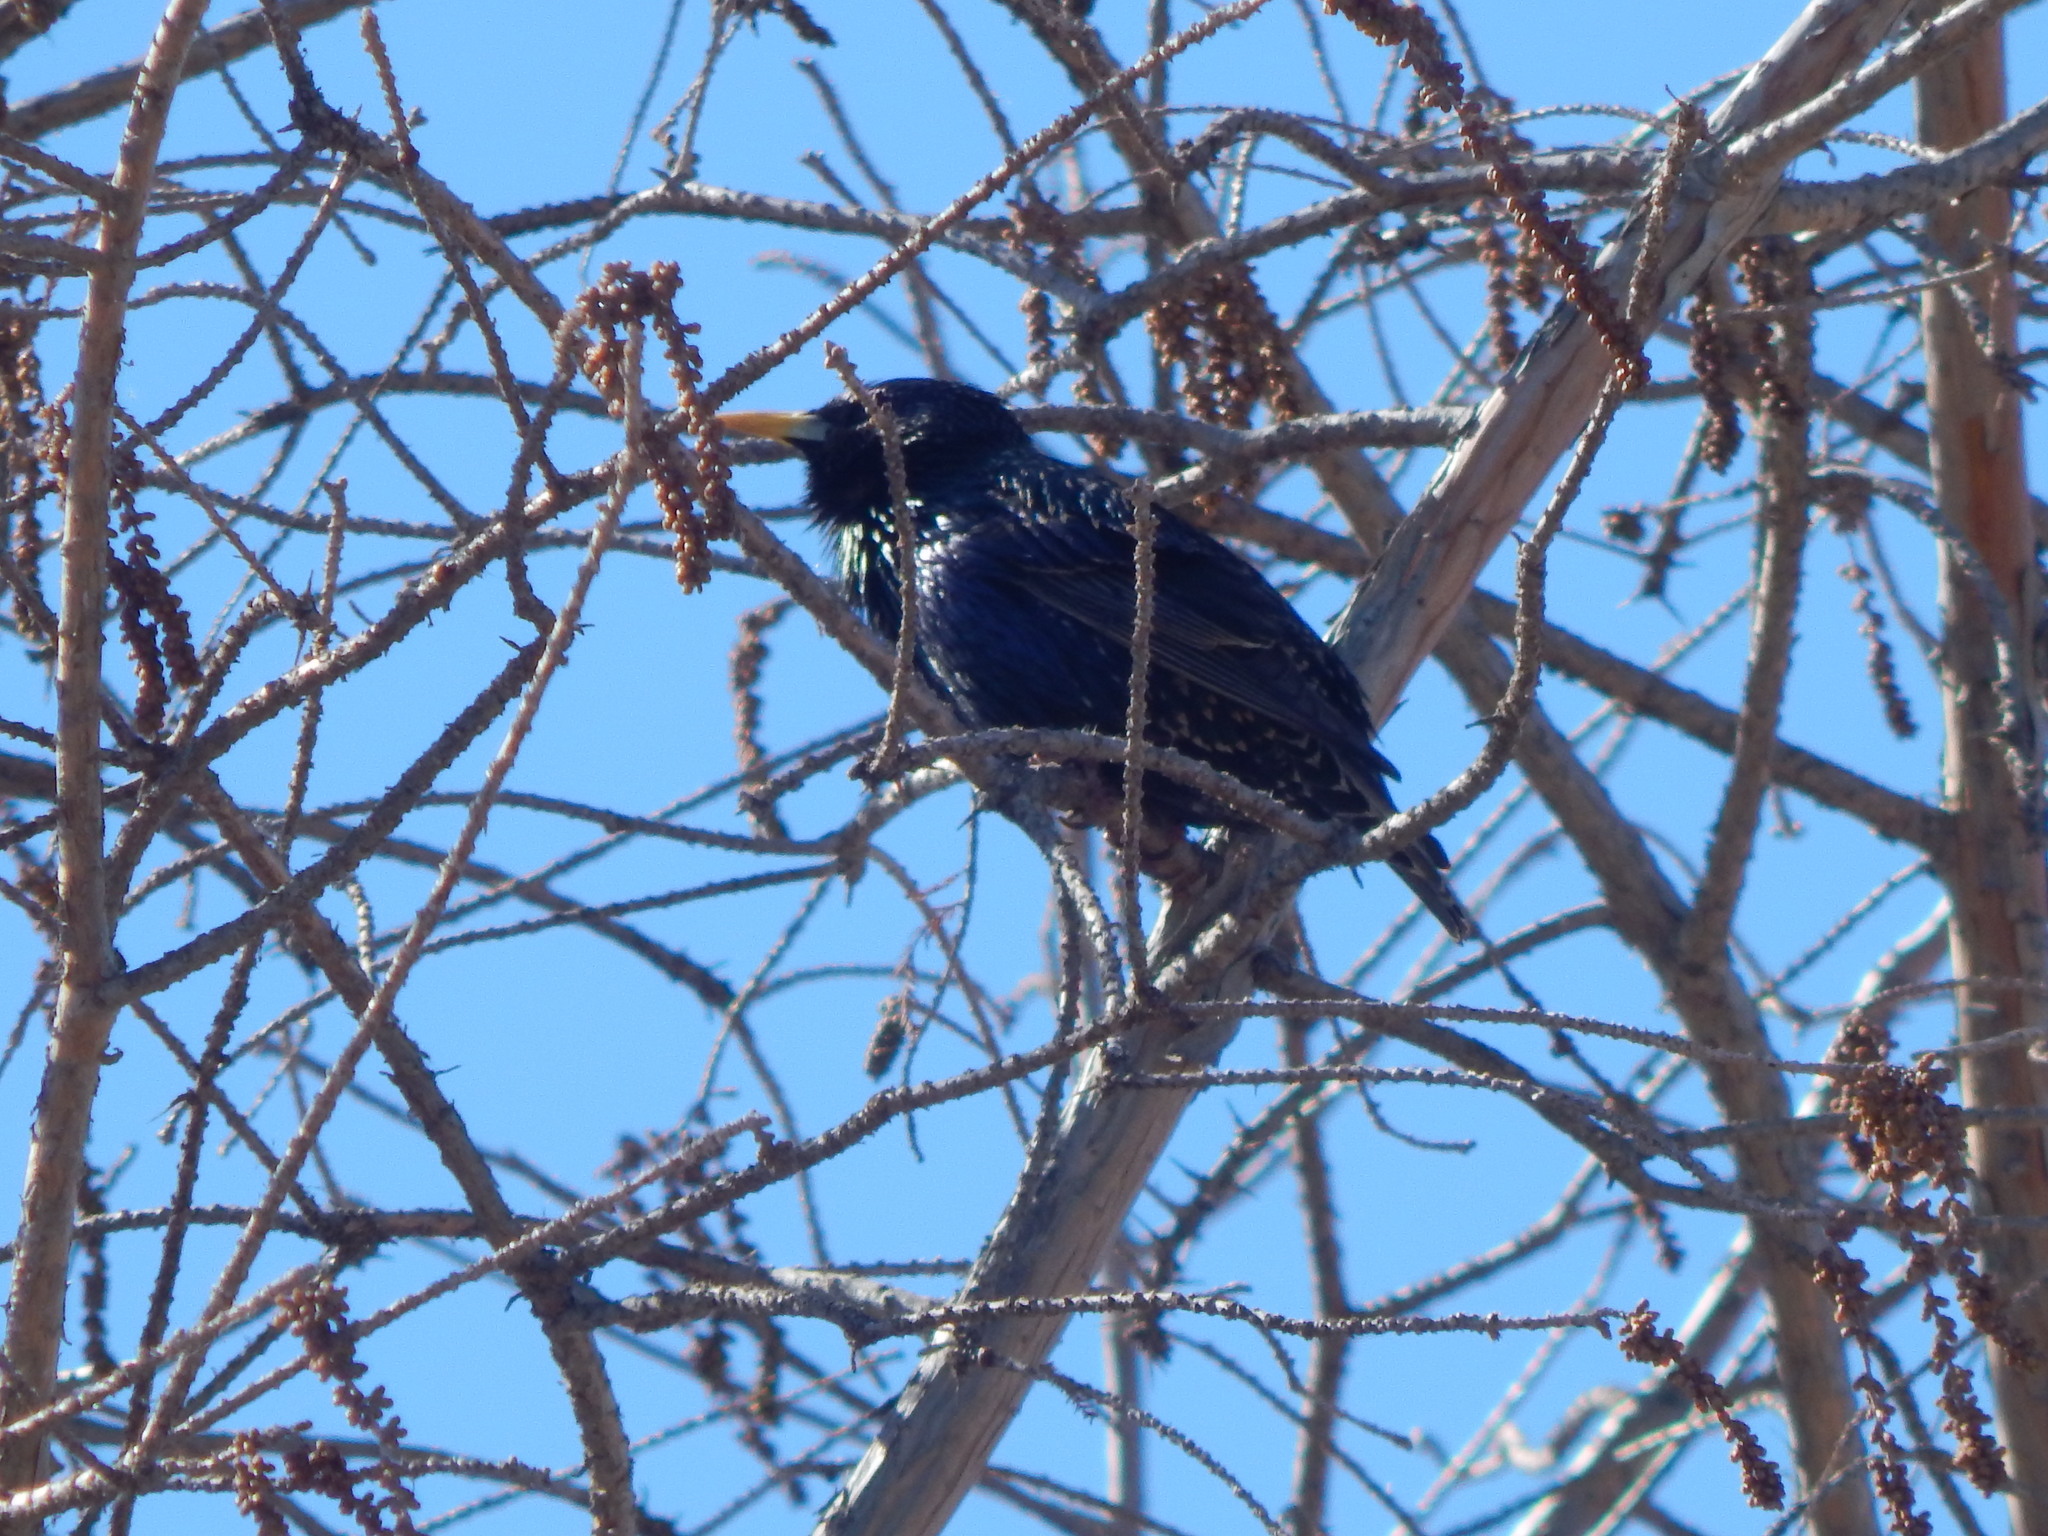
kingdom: Animalia
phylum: Chordata
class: Aves
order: Passeriformes
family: Sturnidae
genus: Sturnus
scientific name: Sturnus vulgaris
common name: Common starling
